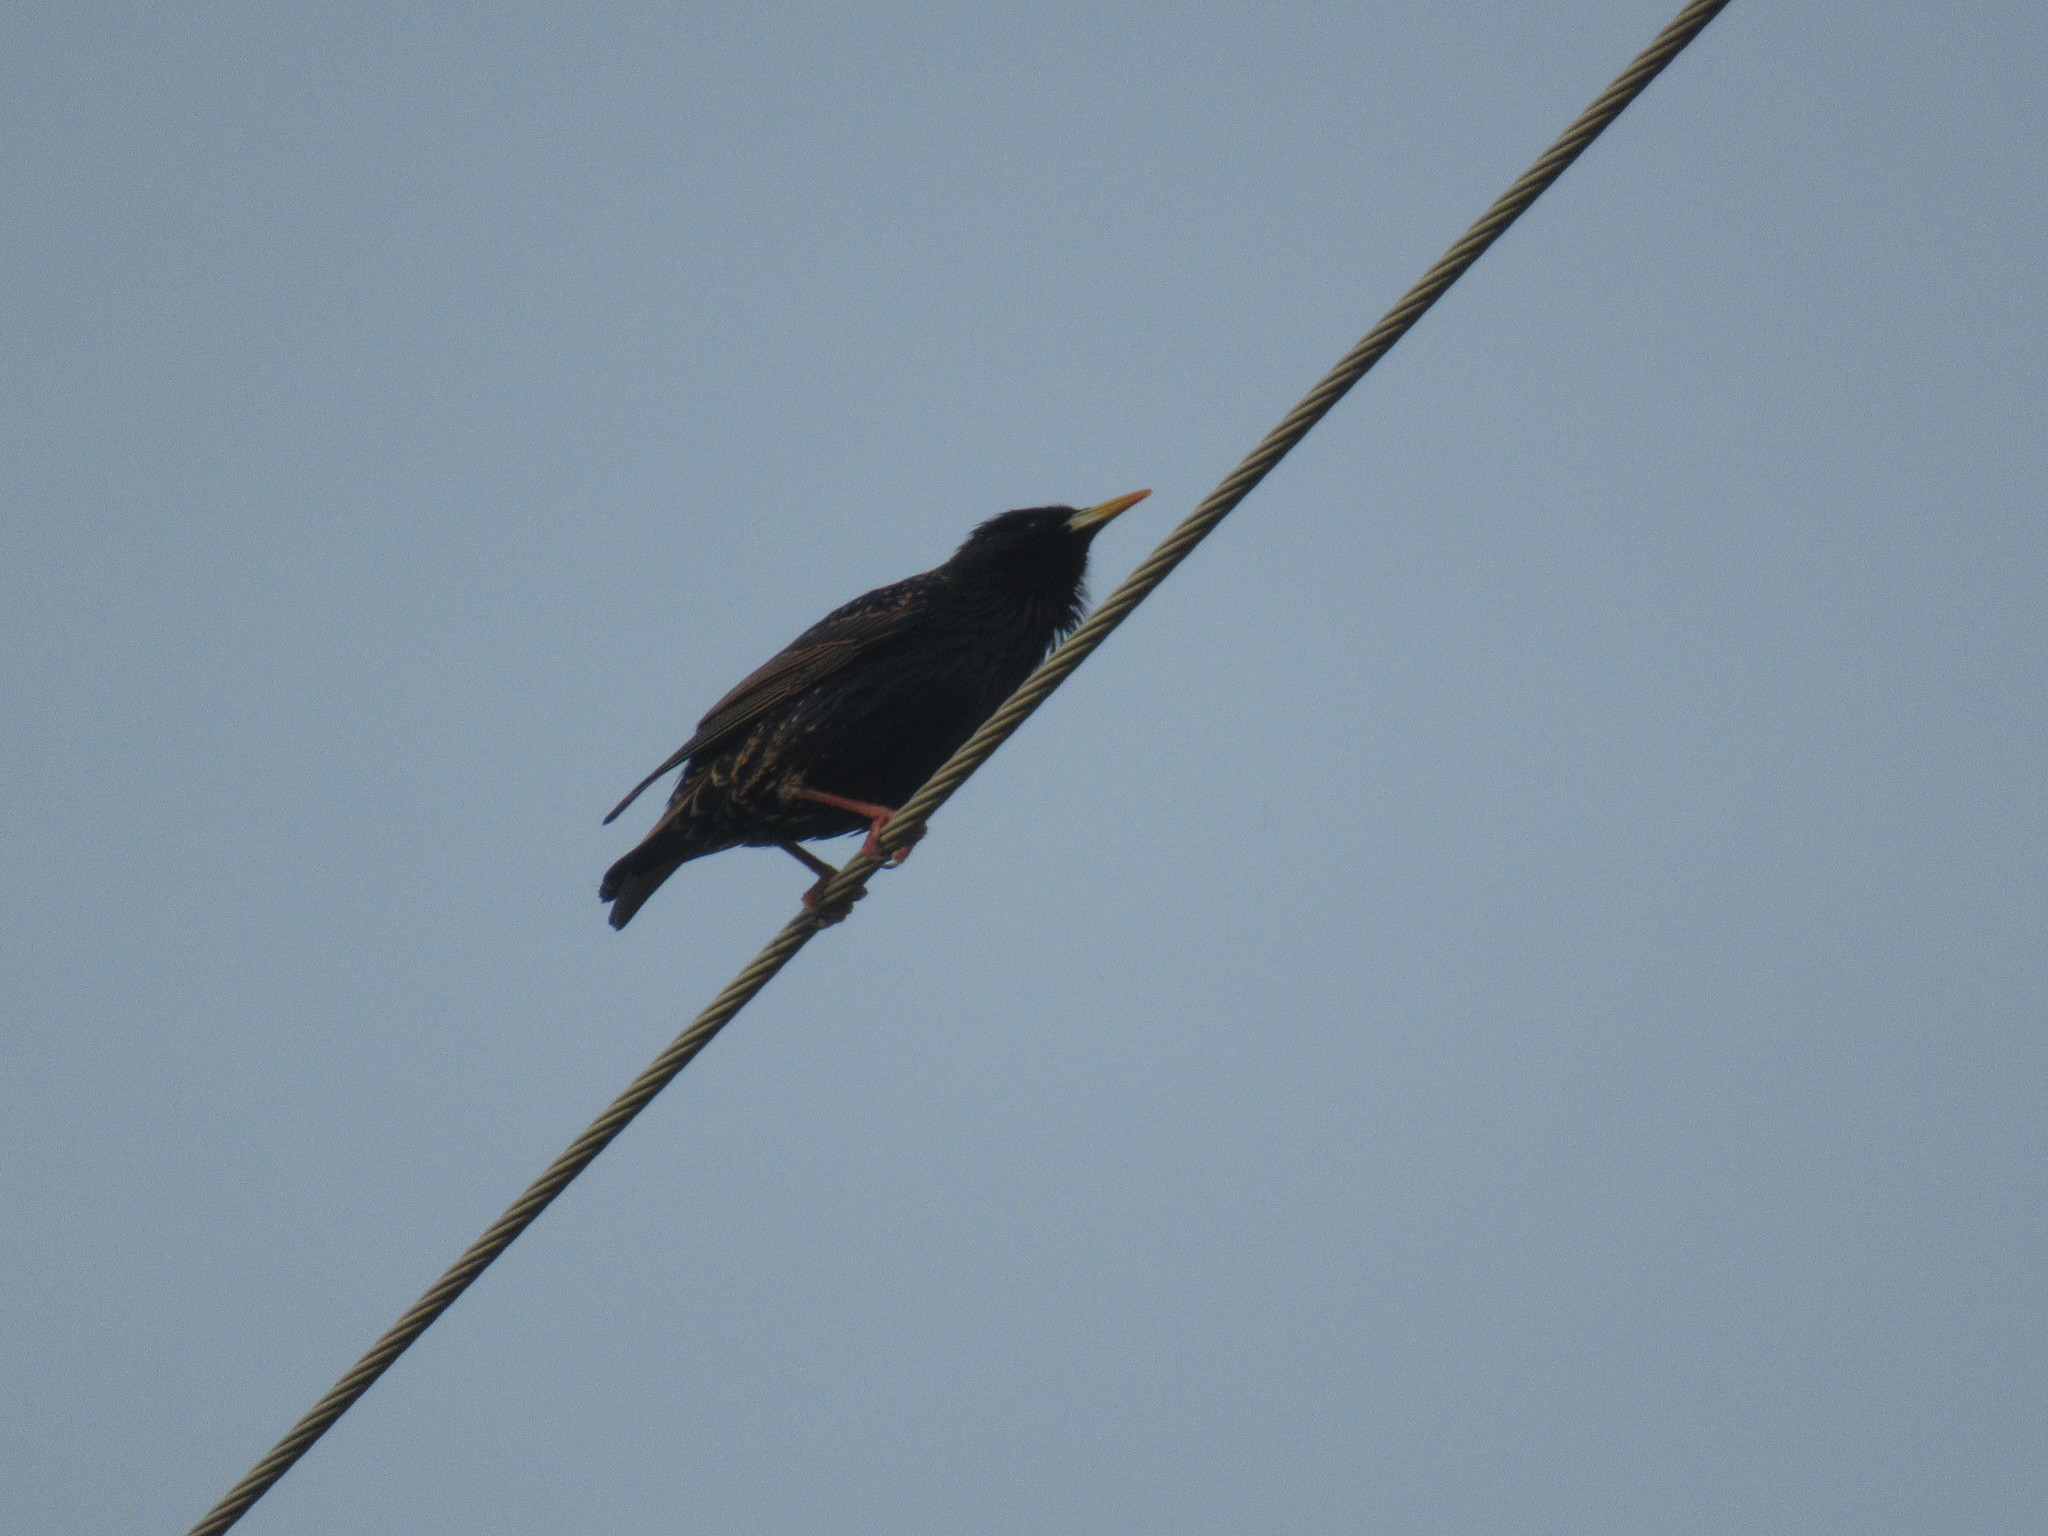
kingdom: Animalia
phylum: Chordata
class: Aves
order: Passeriformes
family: Sturnidae
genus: Sturnus
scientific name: Sturnus vulgaris
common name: Common starling
